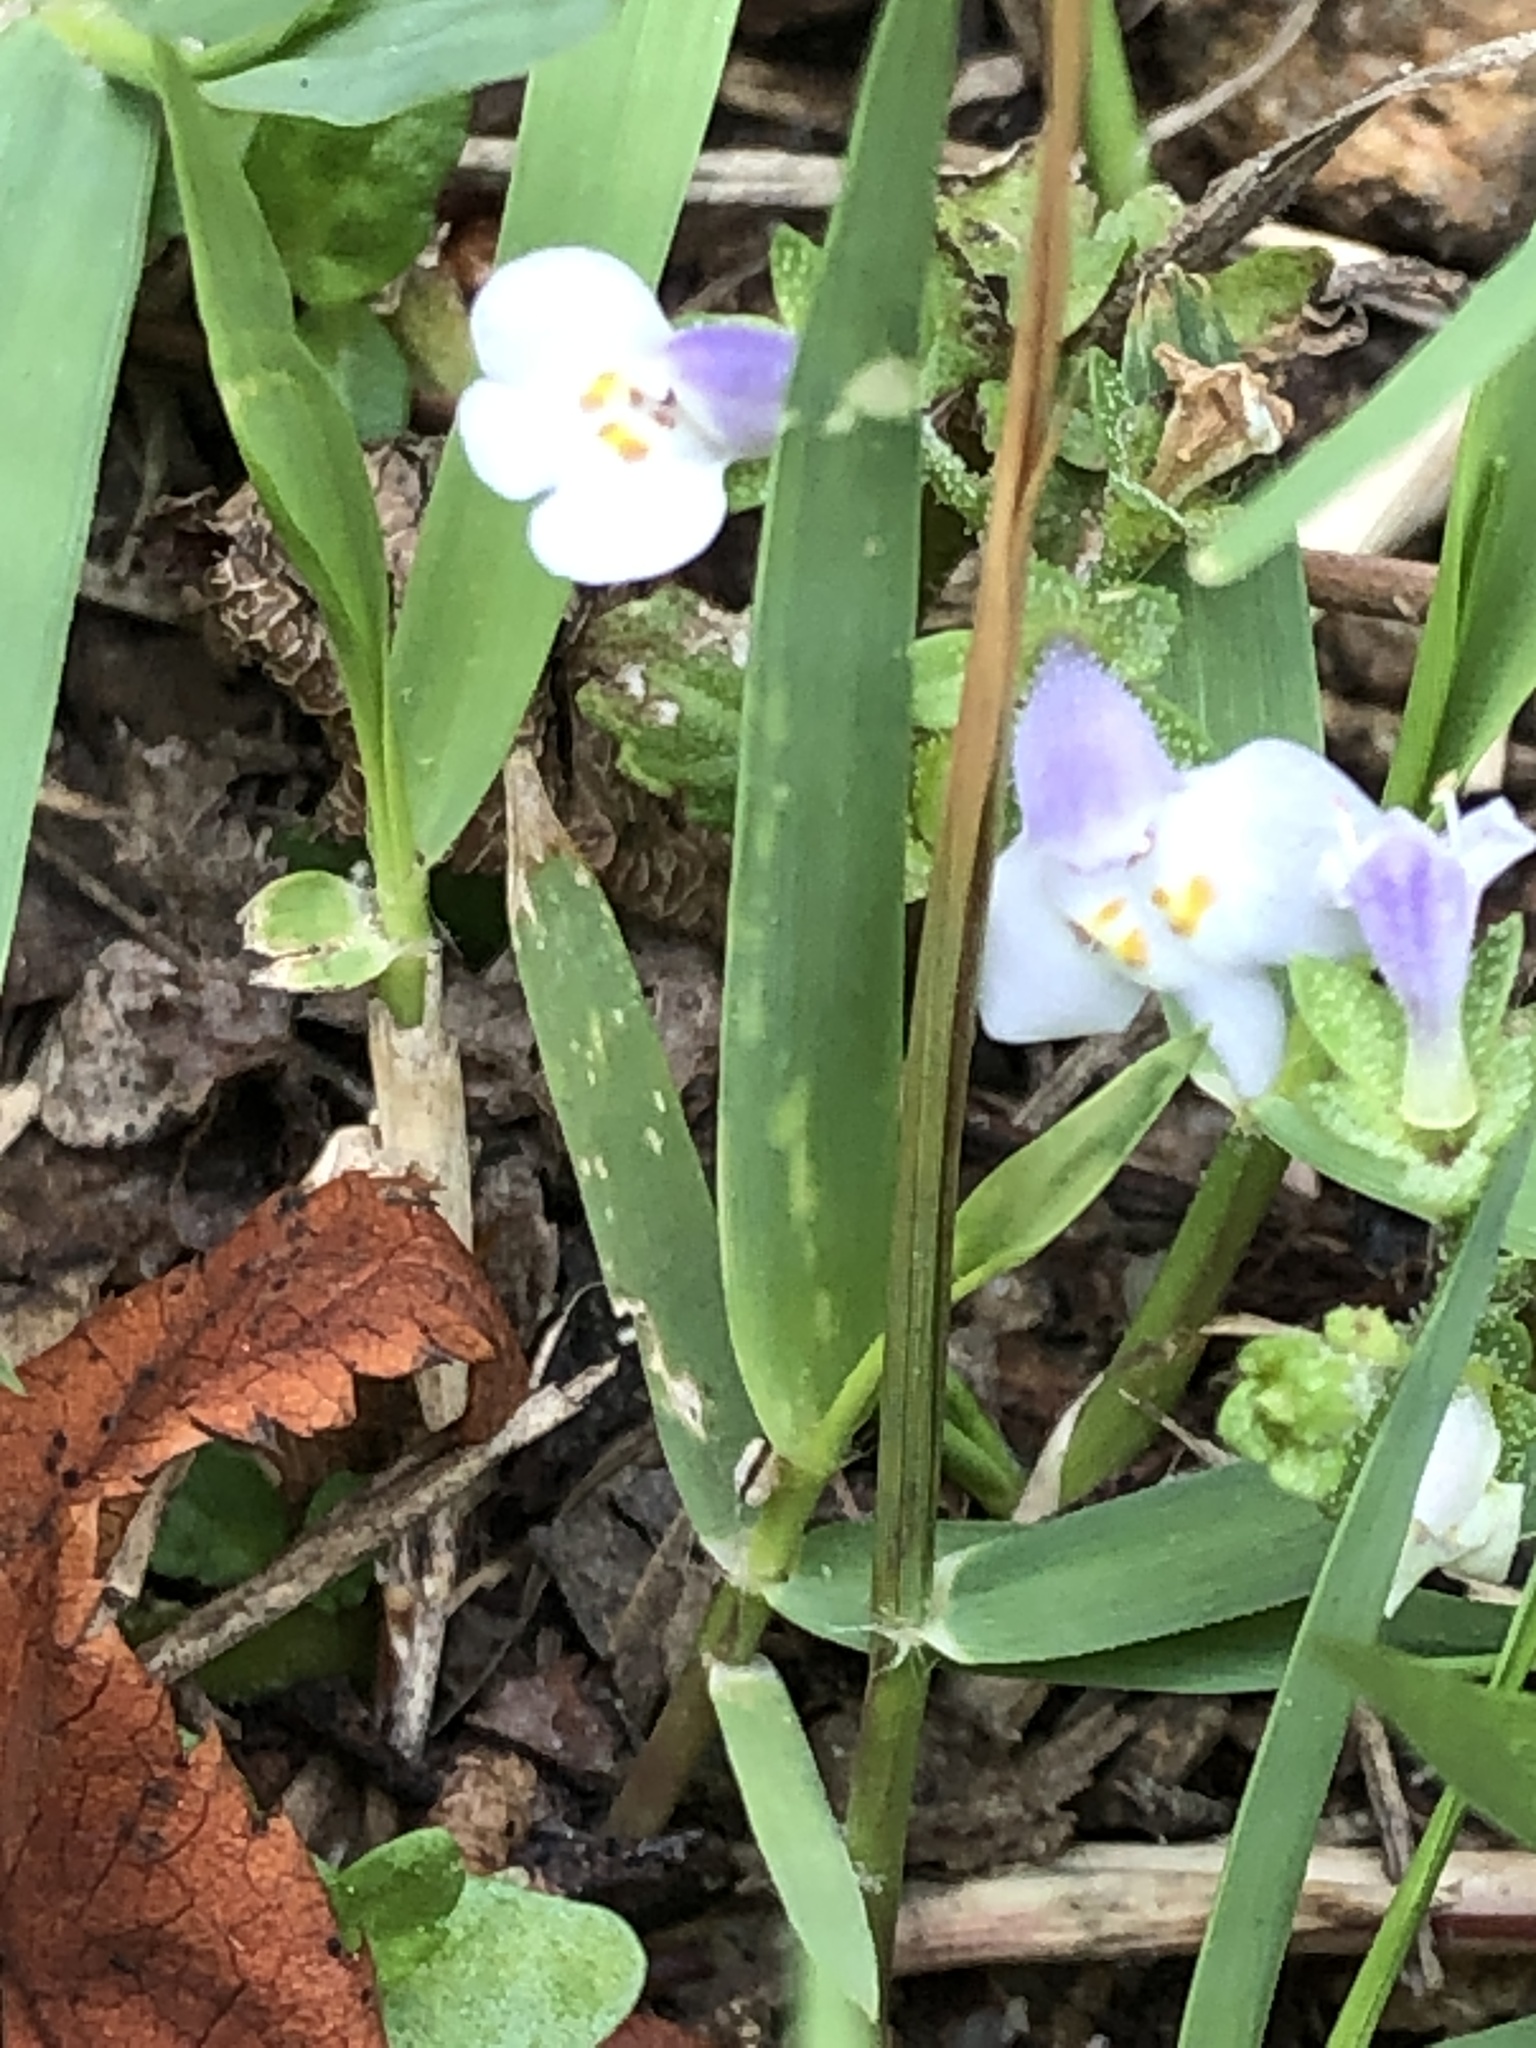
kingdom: Plantae
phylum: Tracheophyta
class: Magnoliopsida
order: Lamiales
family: Mazaceae
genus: Mazus
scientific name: Mazus pumilus
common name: Japanese mazus
